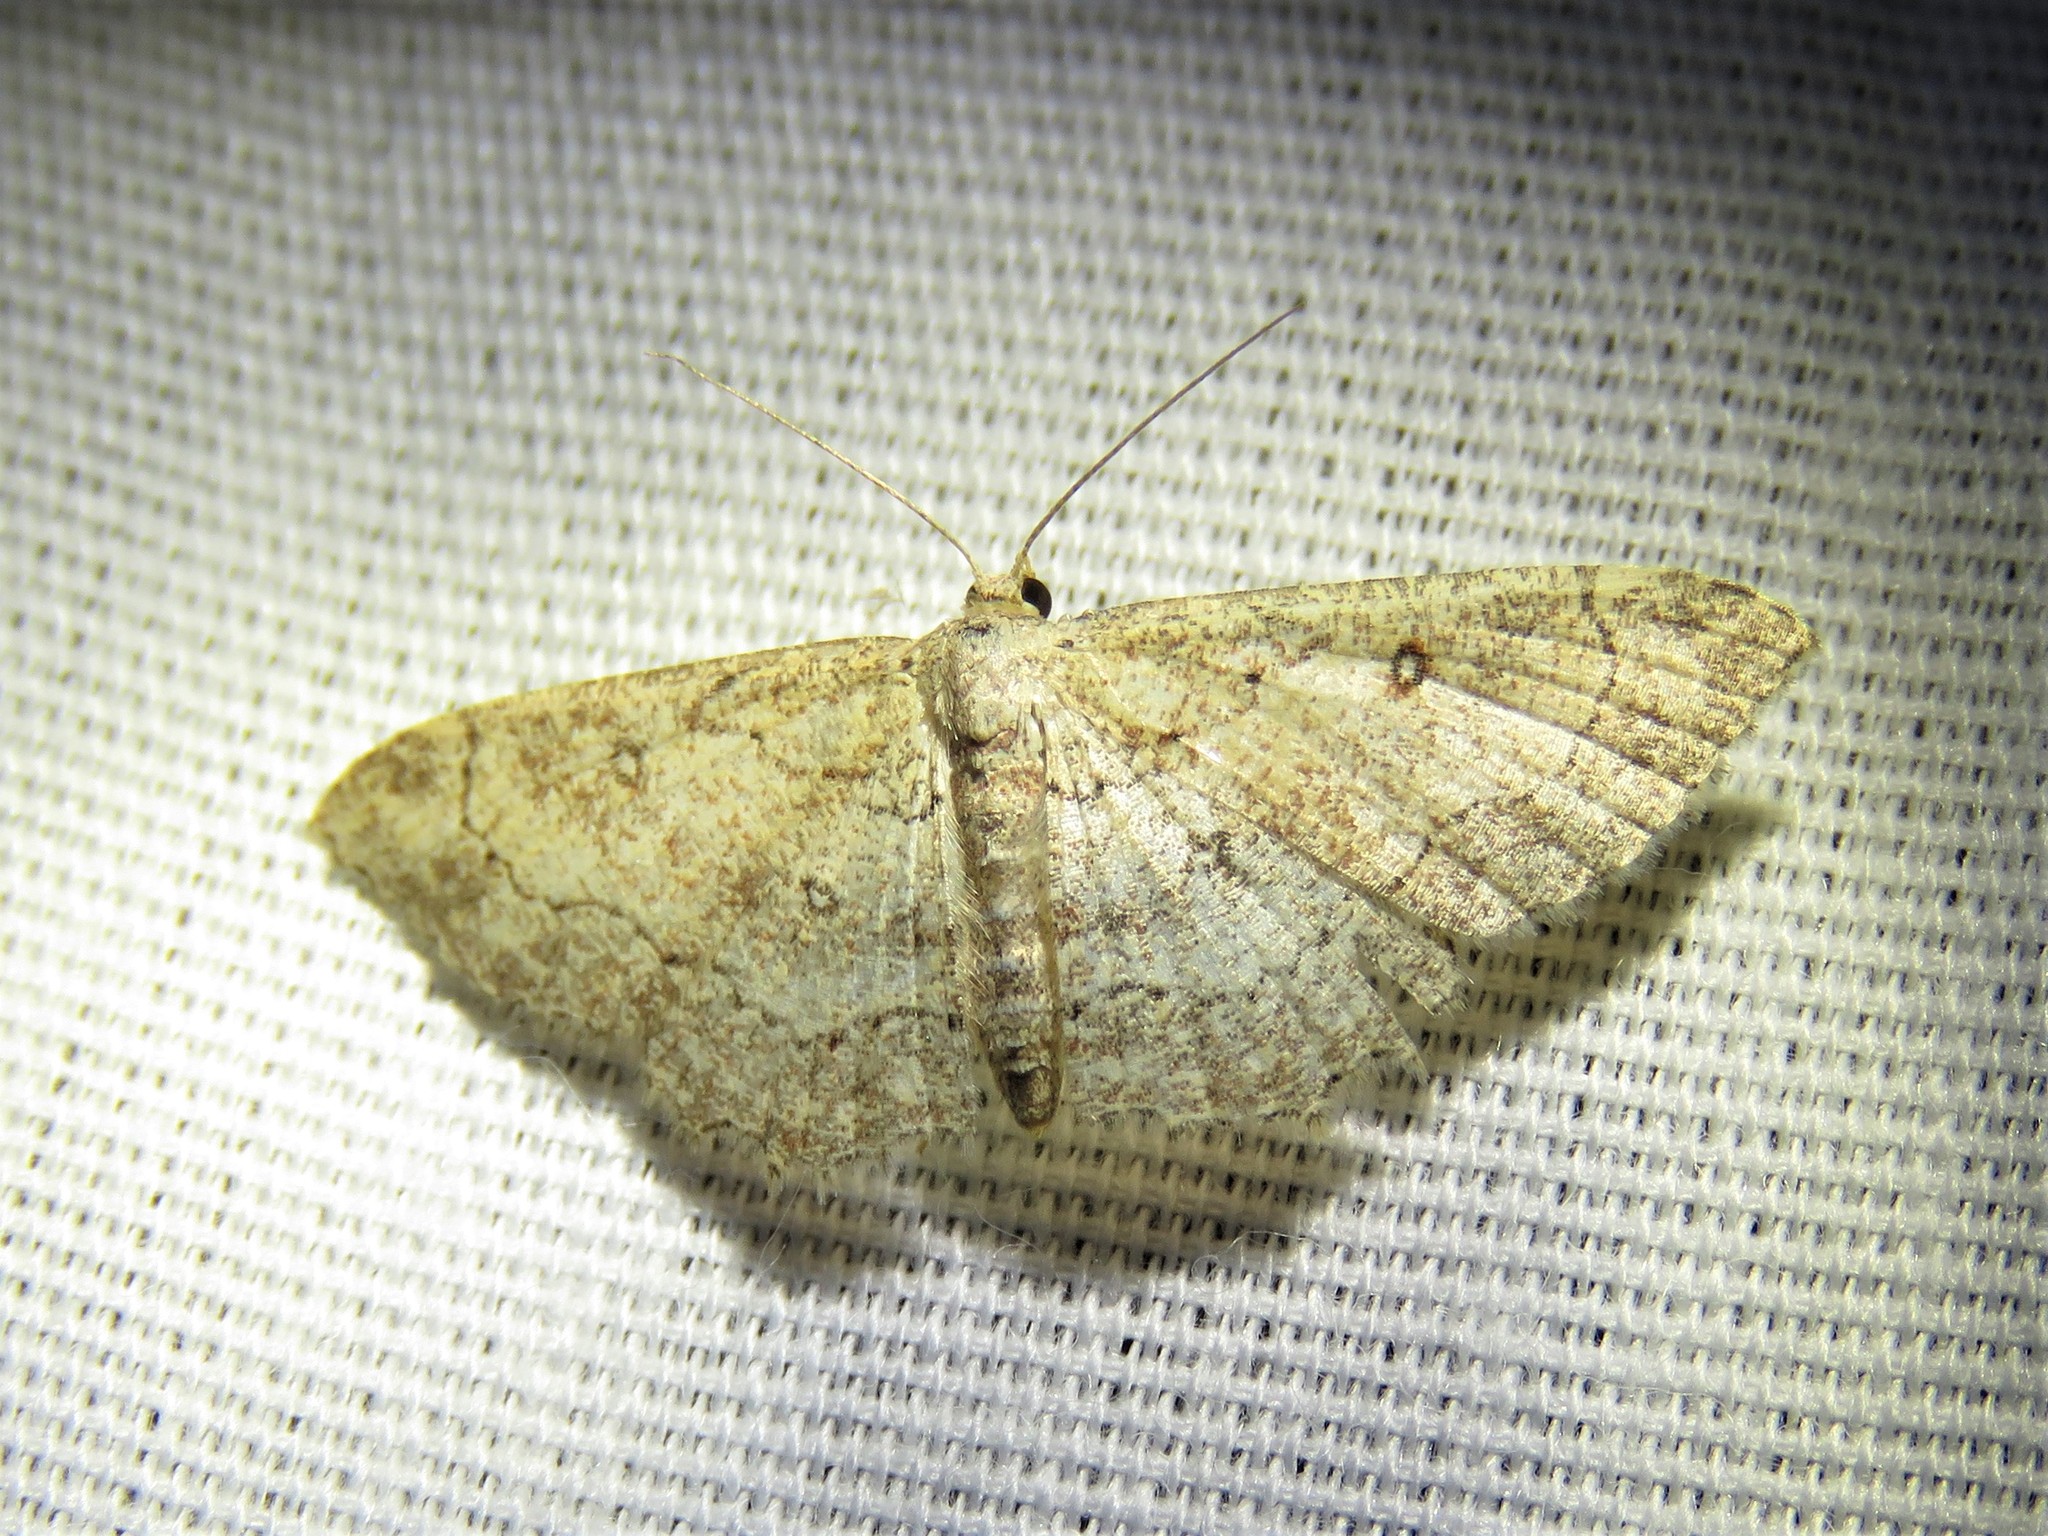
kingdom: Animalia
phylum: Arthropoda
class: Insecta
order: Lepidoptera
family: Geometridae
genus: Cyclophora
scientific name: Cyclophora nanaria
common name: Cankerworm
